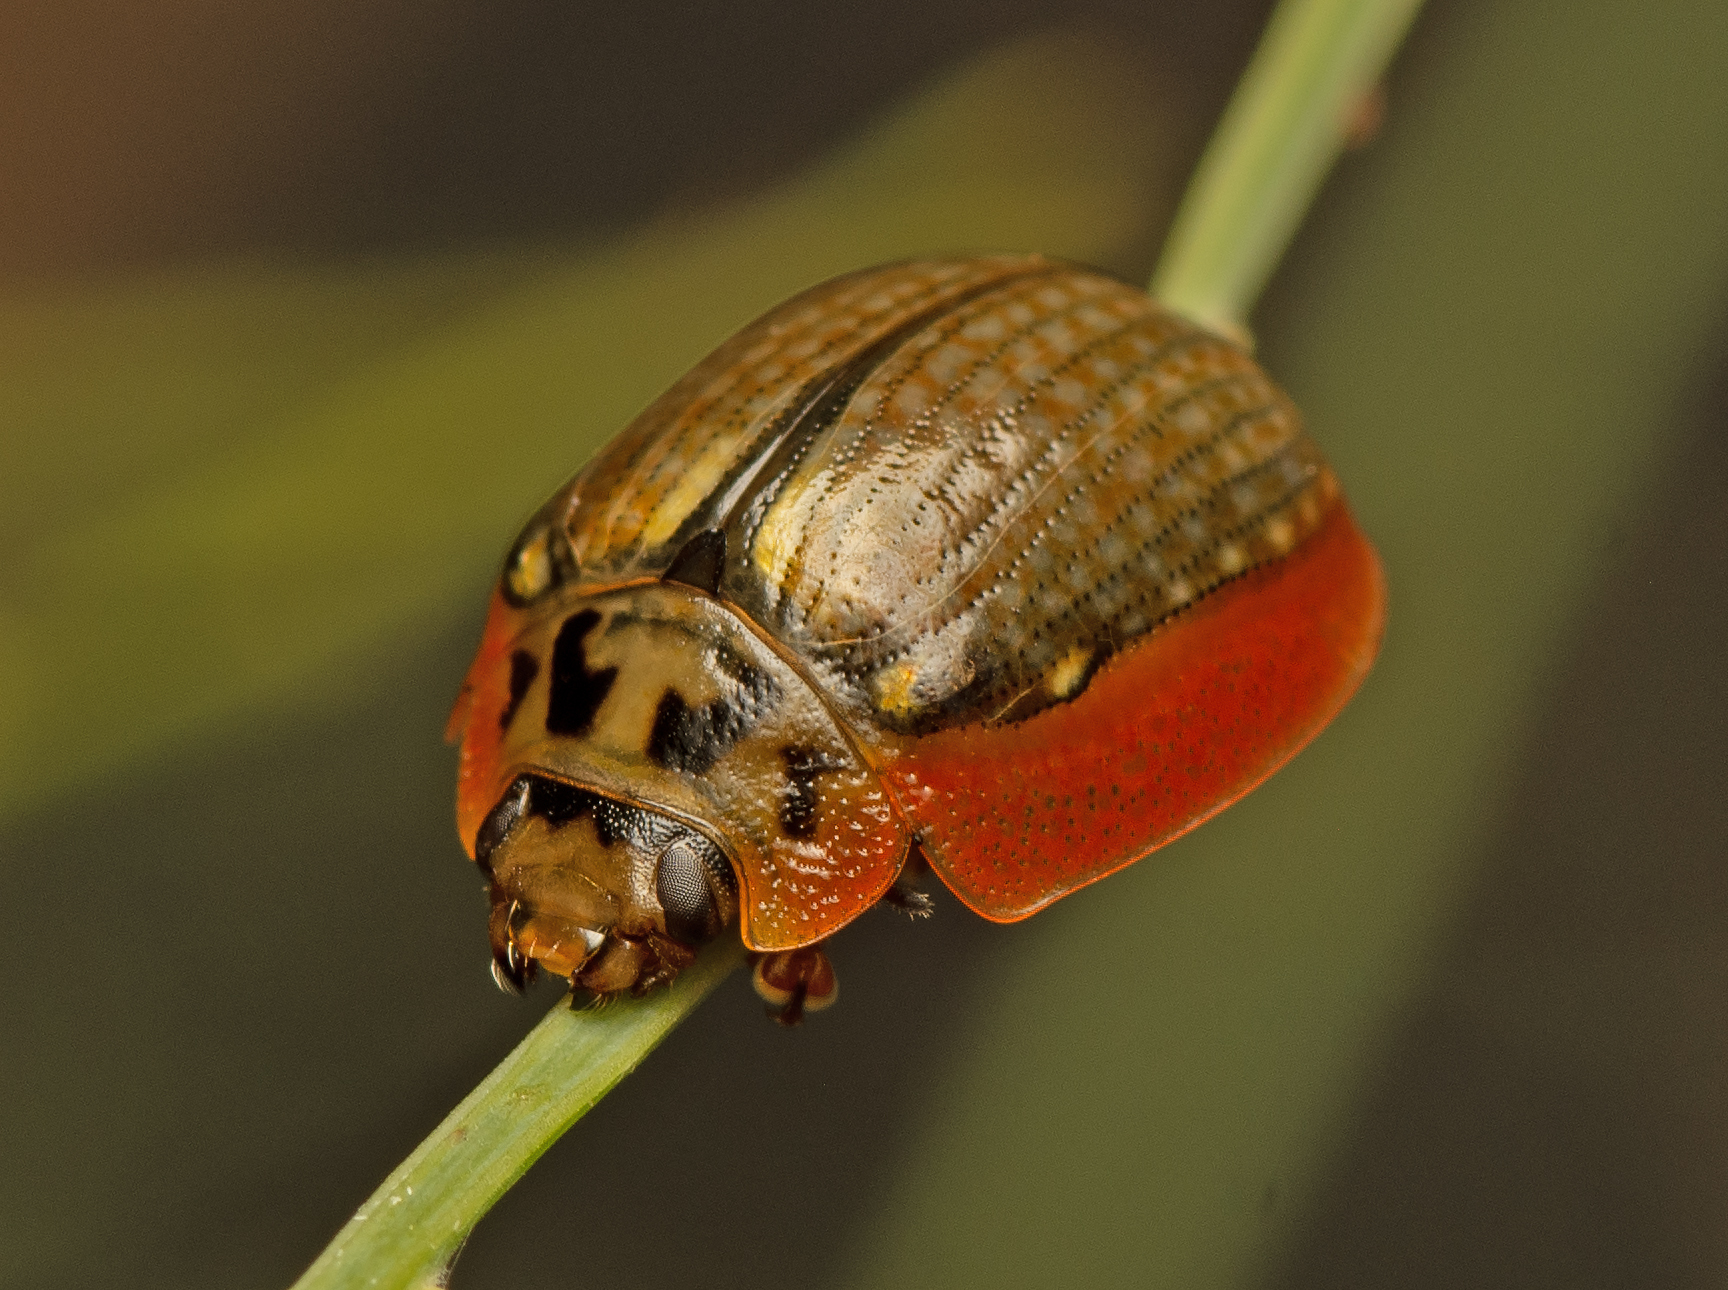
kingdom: Animalia
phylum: Arthropoda
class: Insecta
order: Coleoptera
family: Chrysomelidae
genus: Paropsisterna
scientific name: Paropsisterna agricola
